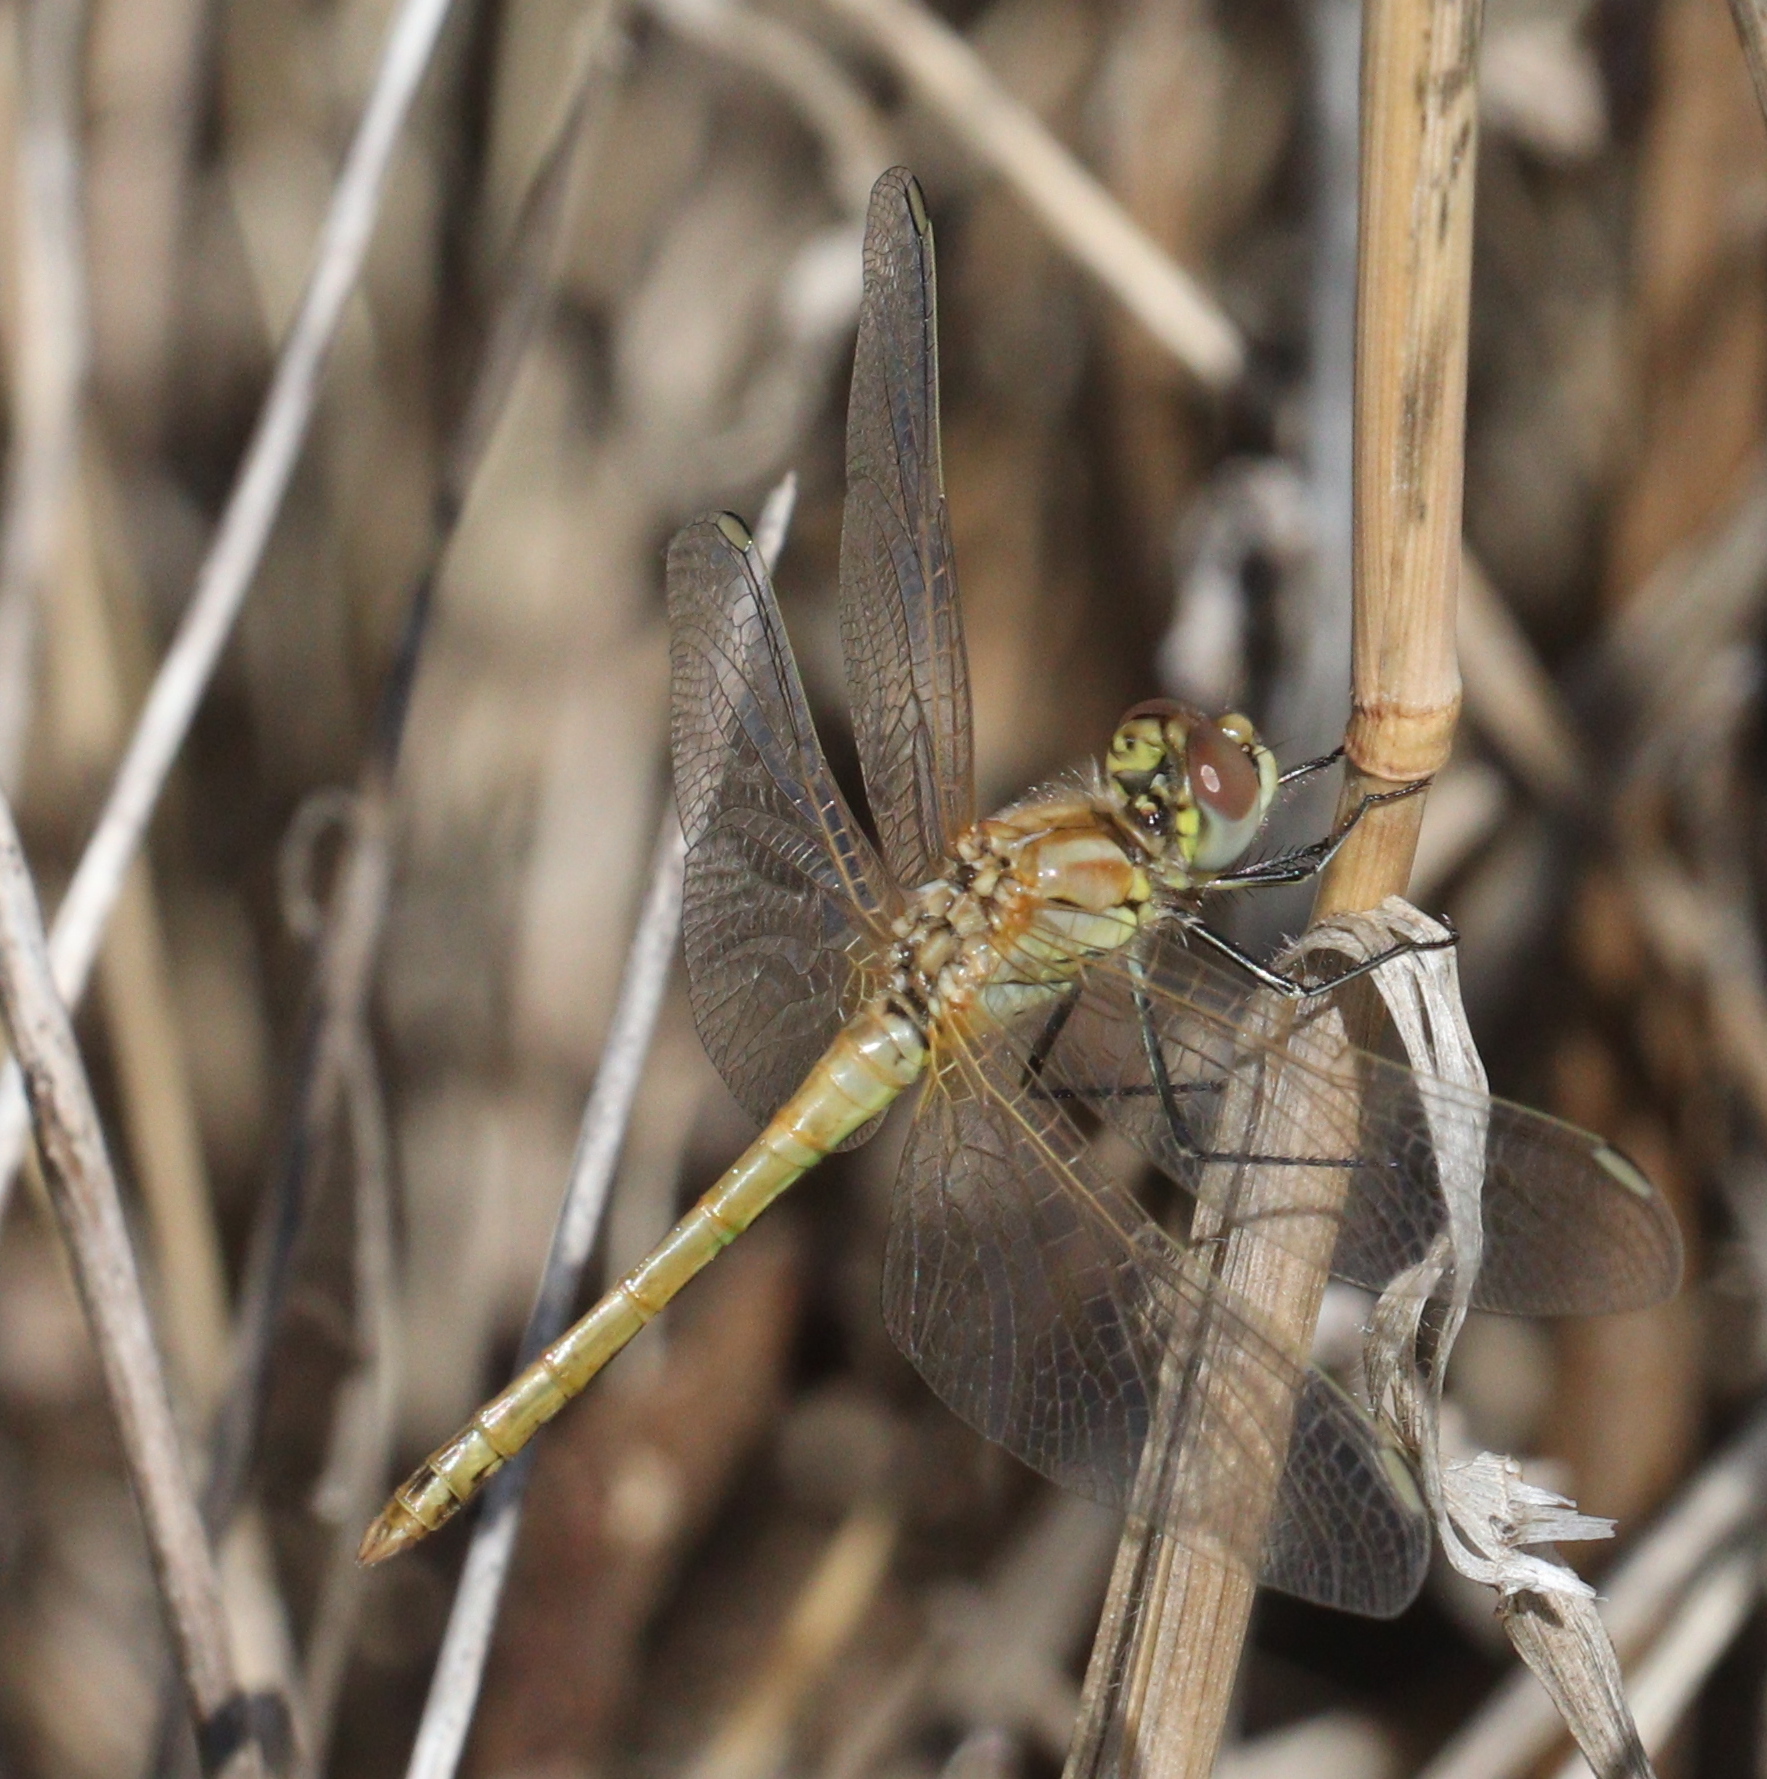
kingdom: Animalia
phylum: Arthropoda
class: Insecta
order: Odonata
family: Libellulidae
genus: Sympetrum
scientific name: Sympetrum fonscolombii
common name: Red-veined darter
